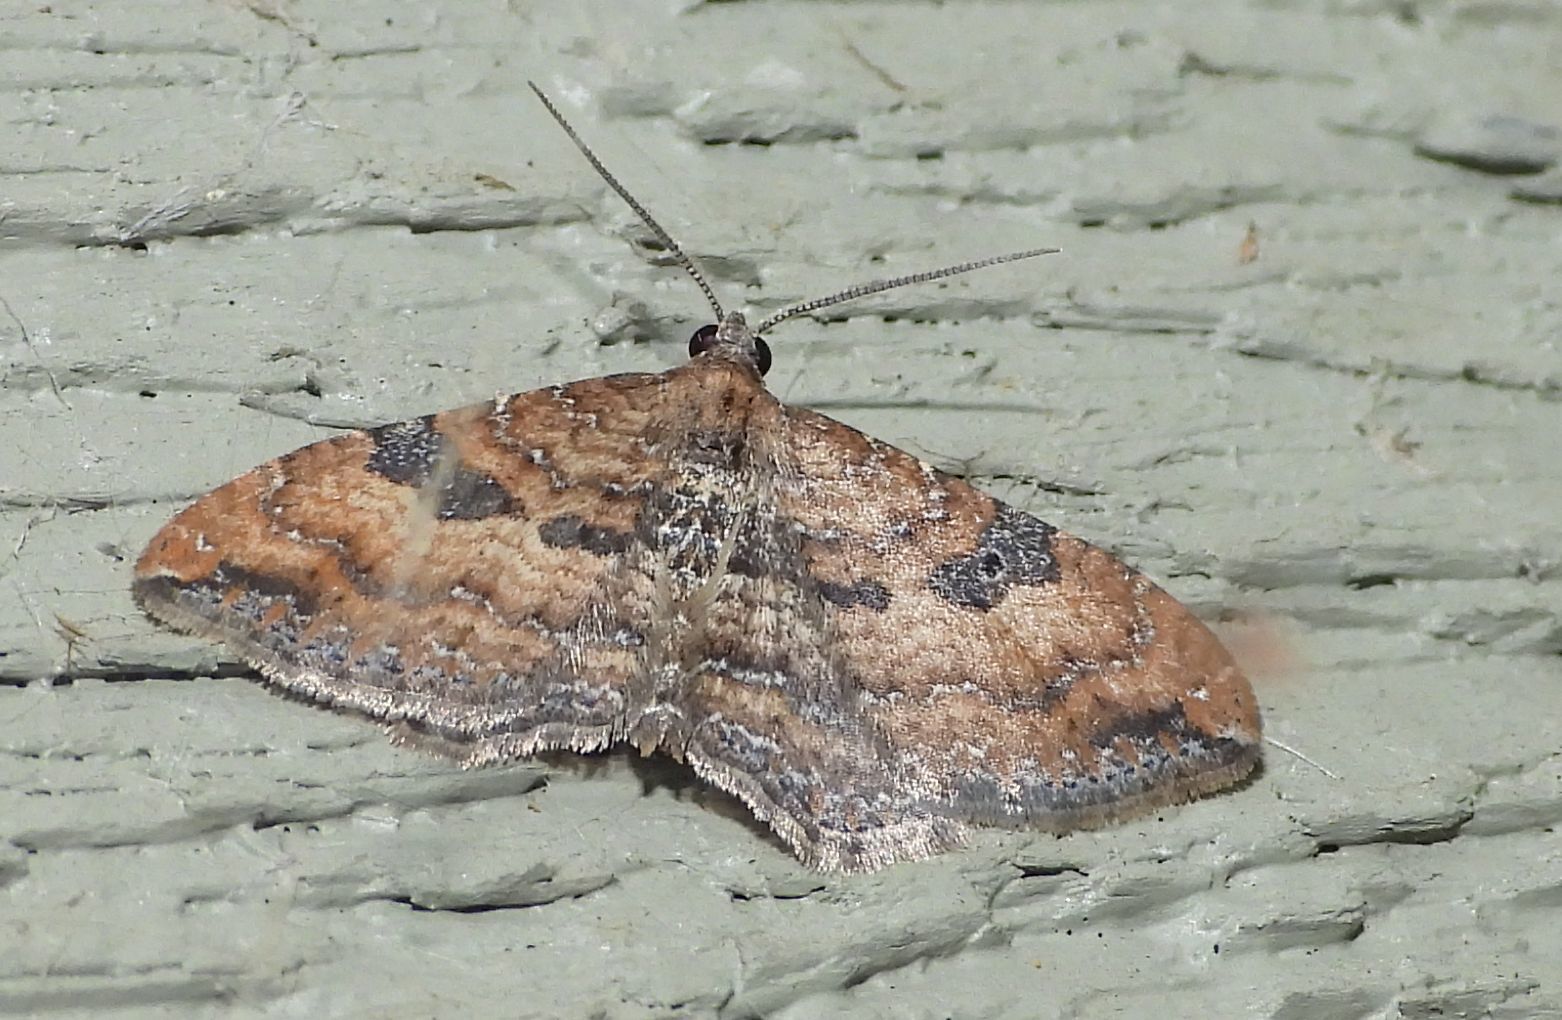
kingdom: Animalia
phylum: Arthropoda
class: Insecta
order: Lepidoptera
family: Geometridae
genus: Orthonama
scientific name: Orthonama obstipata
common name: The gem
